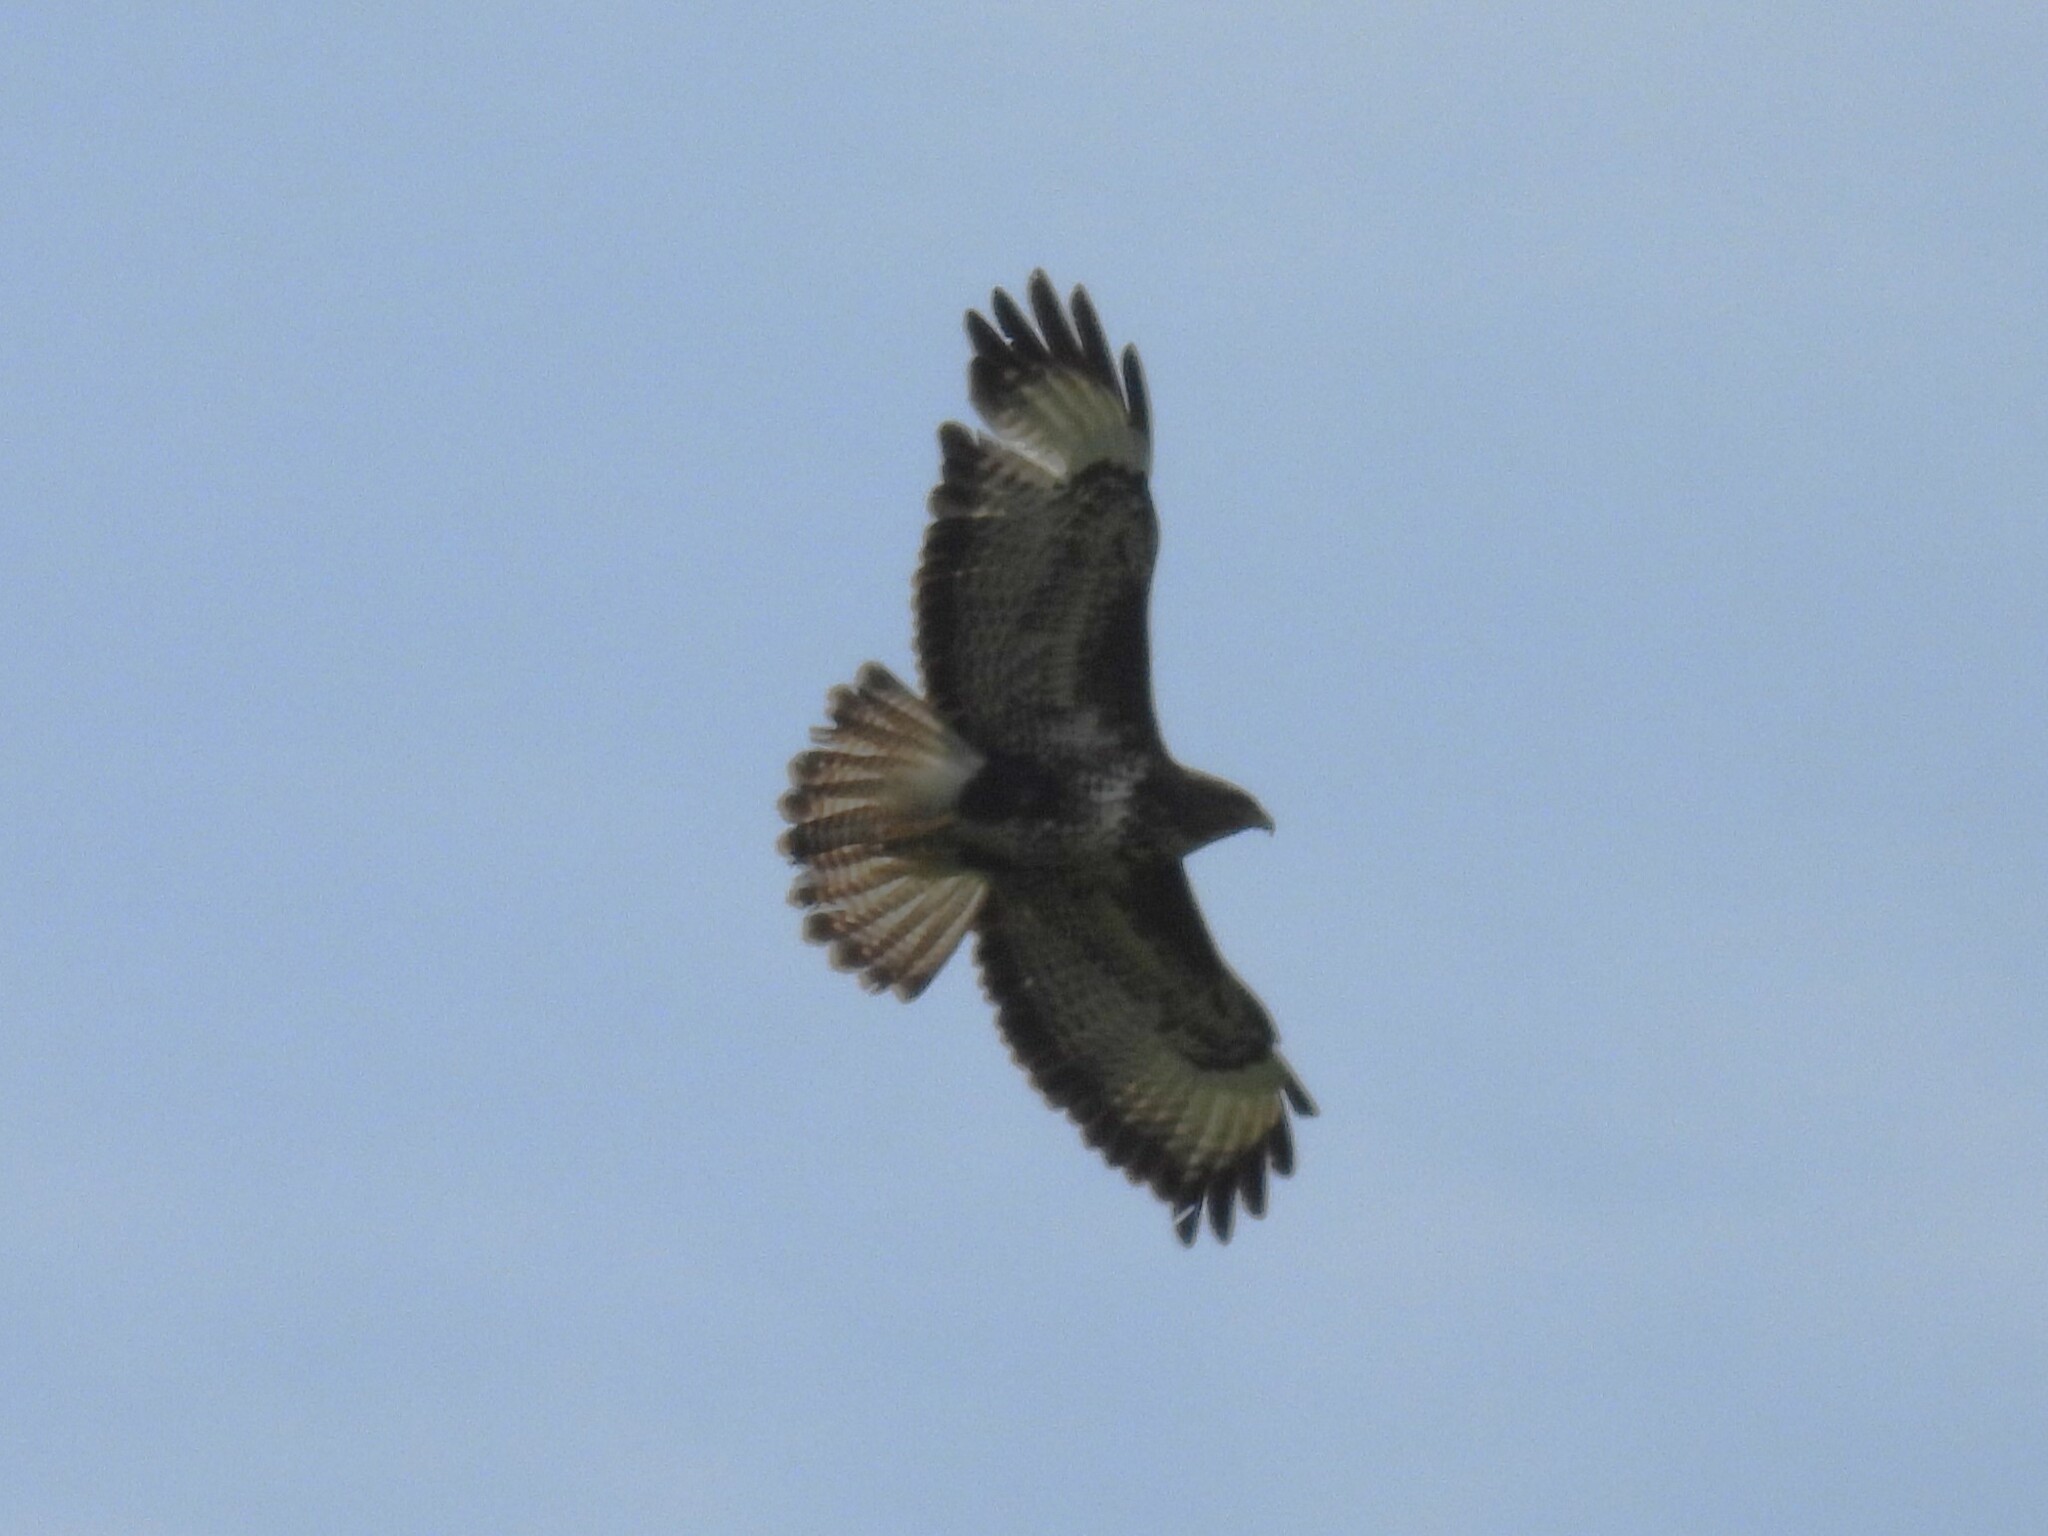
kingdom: Animalia
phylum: Chordata
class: Aves
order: Accipitriformes
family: Accipitridae
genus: Buteo
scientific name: Buteo buteo
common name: Common buzzard
